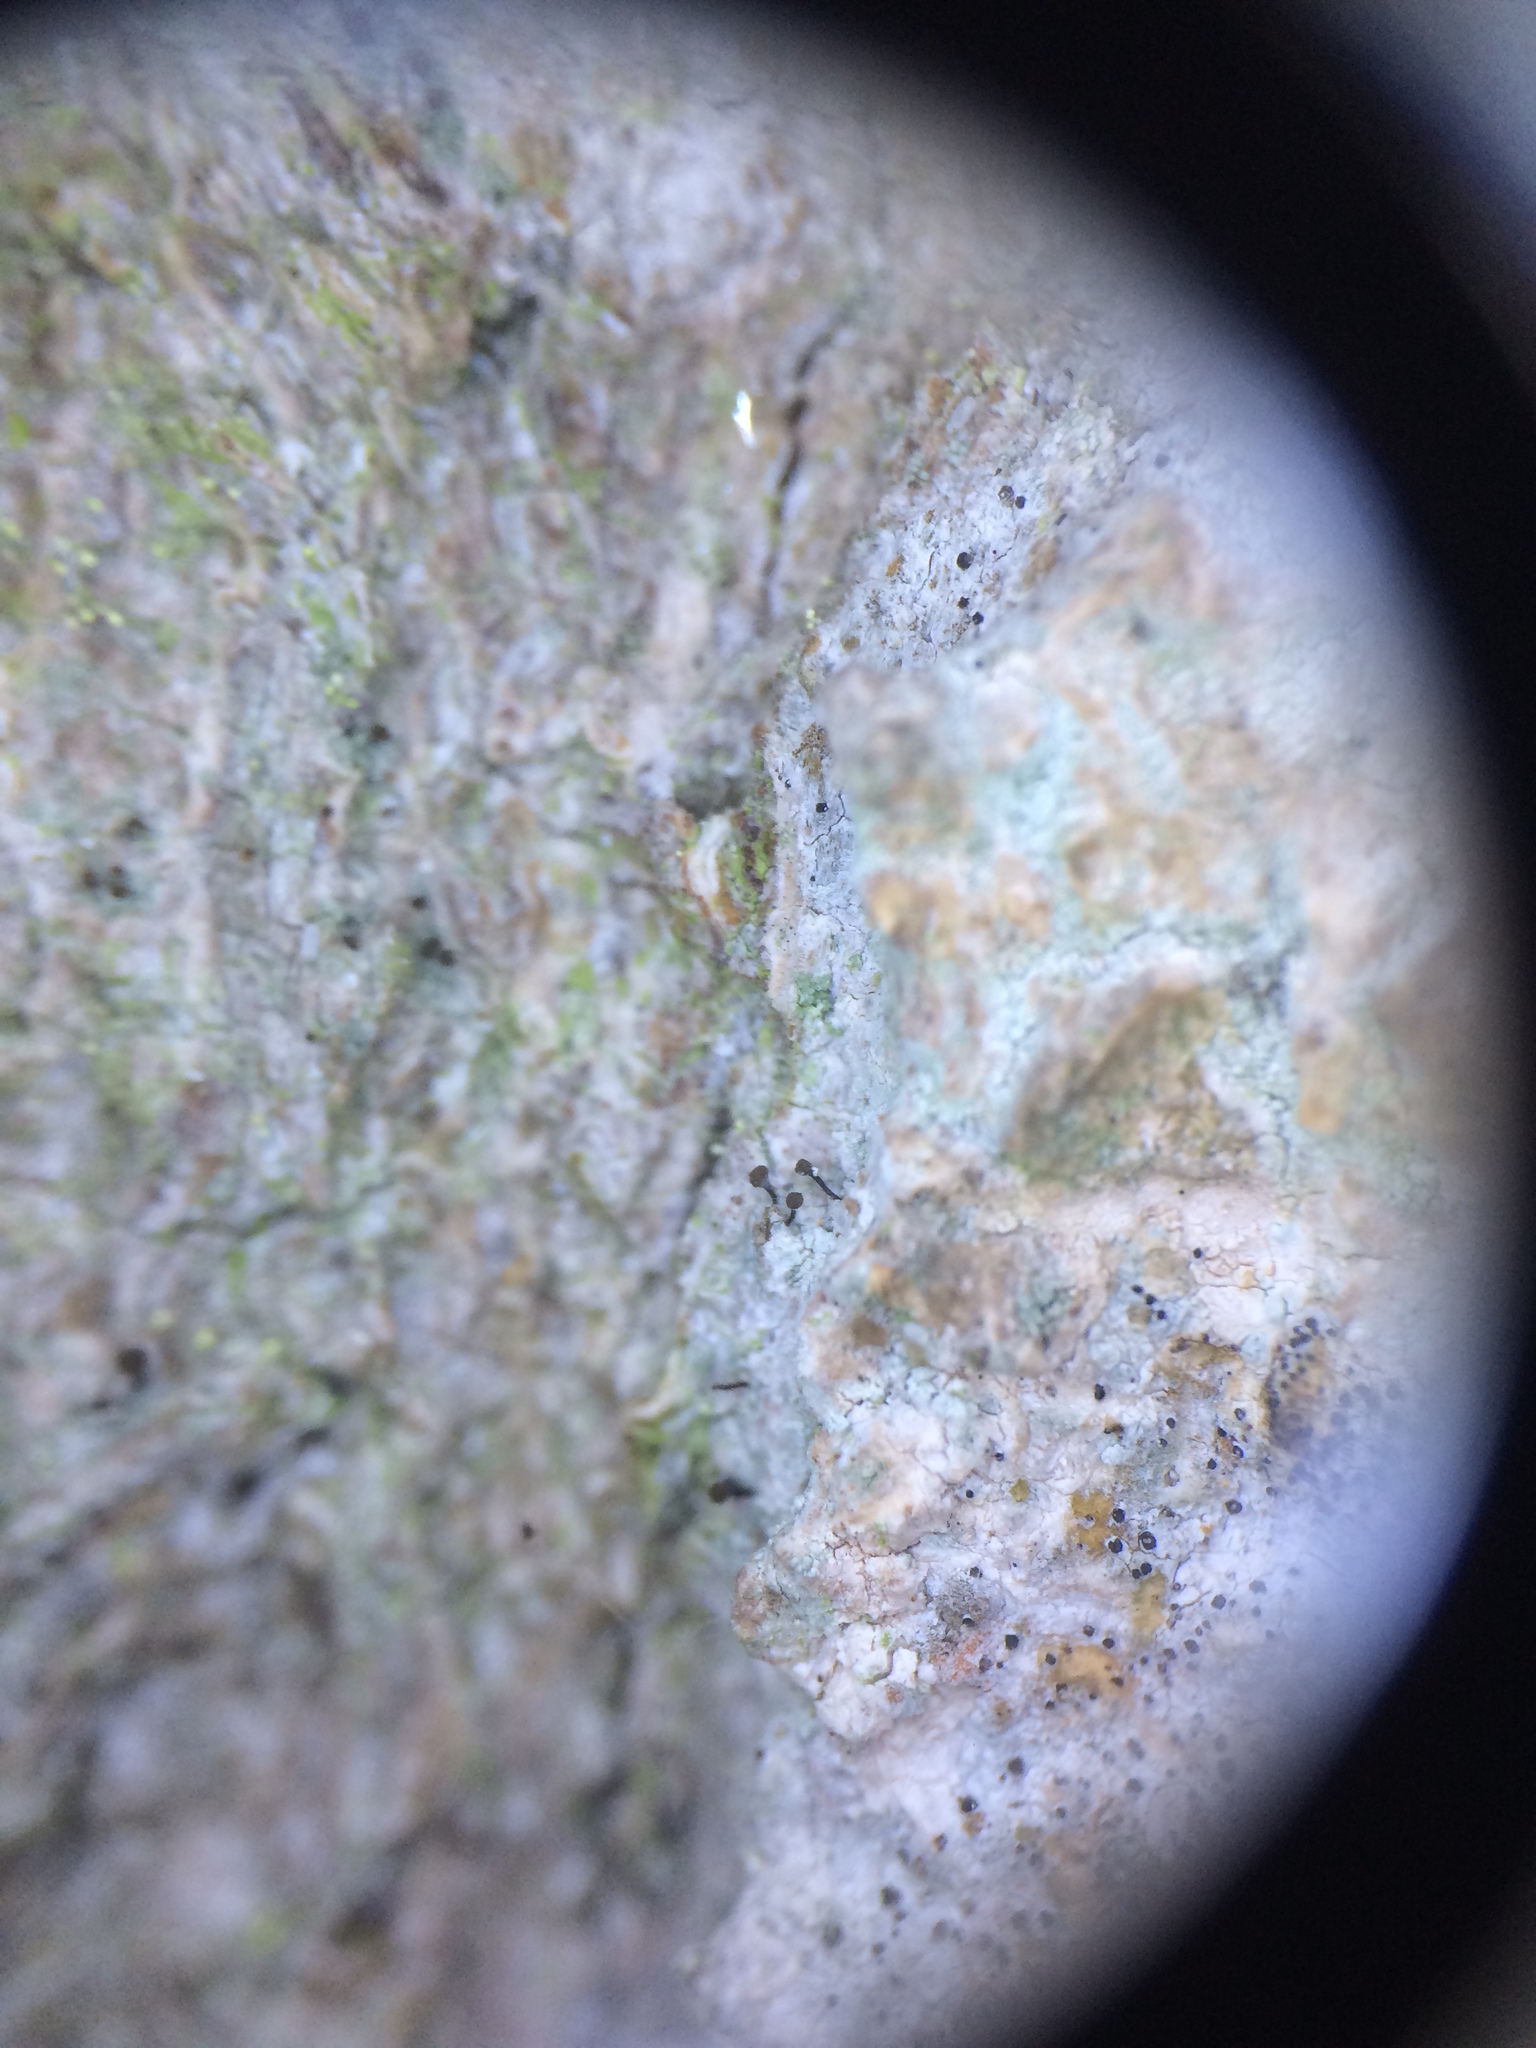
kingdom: Fungi
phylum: Ascomycota
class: Coniocybomycetes
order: Coniocybales
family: Coniocybaceae
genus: Chaenotheca
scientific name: Chaenotheca trichialis
